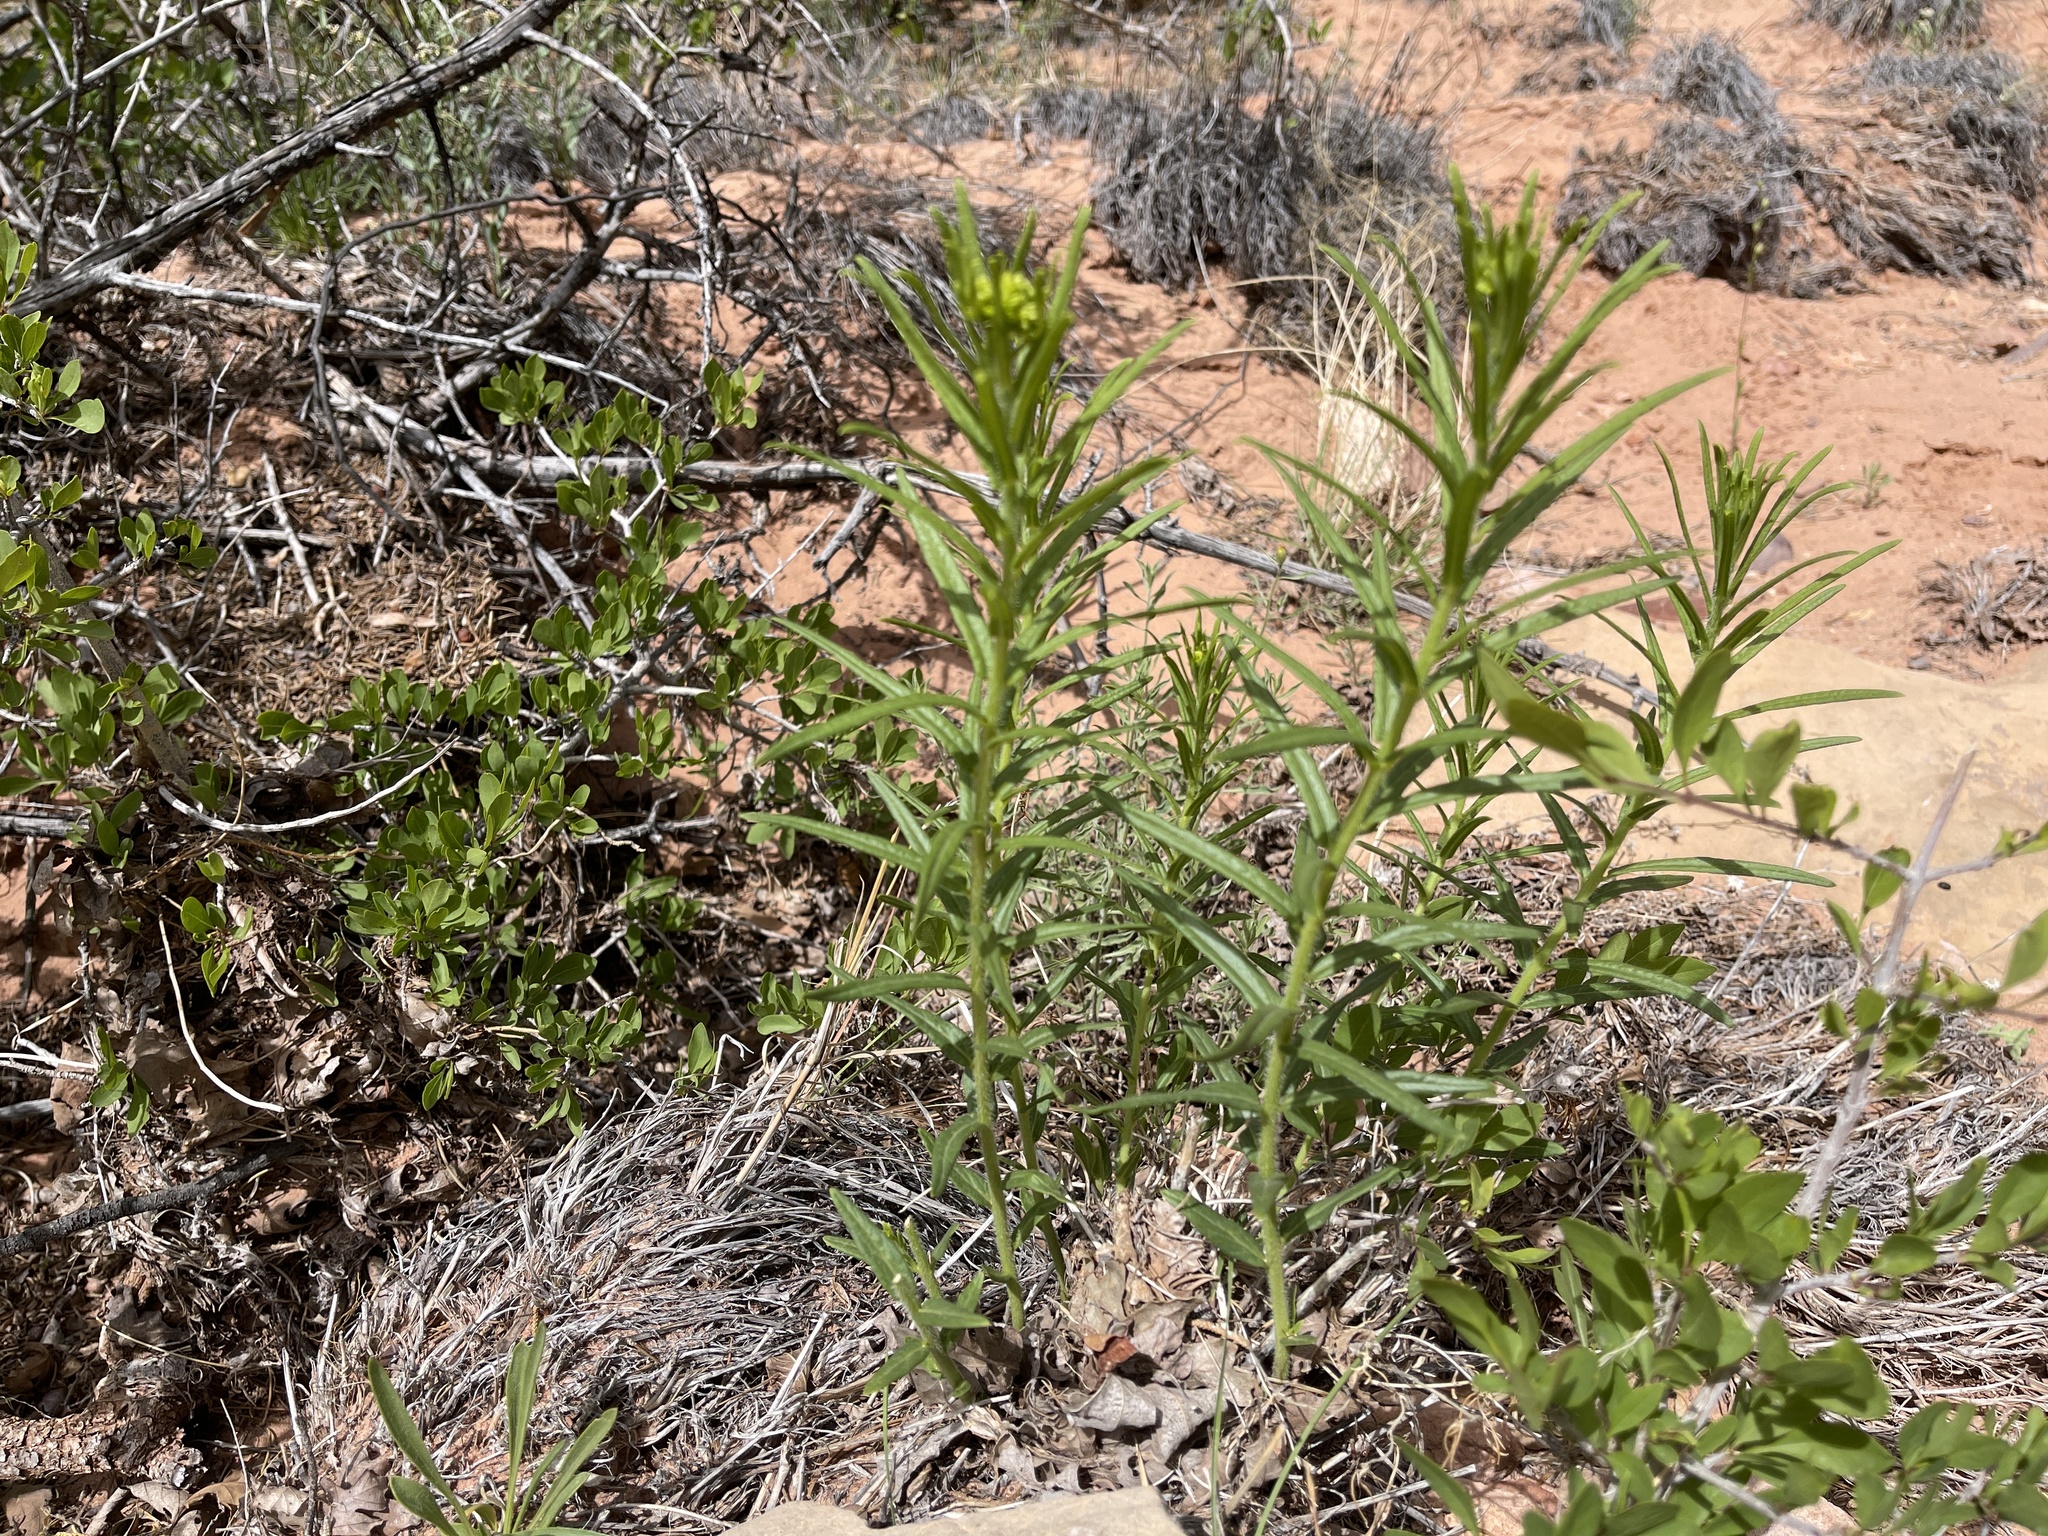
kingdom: Plantae
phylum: Tracheophyta
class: Magnoliopsida
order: Gentianales
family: Apocynaceae
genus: Asclepias
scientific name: Asclepias tuberosa
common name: Butterfly milkweed
